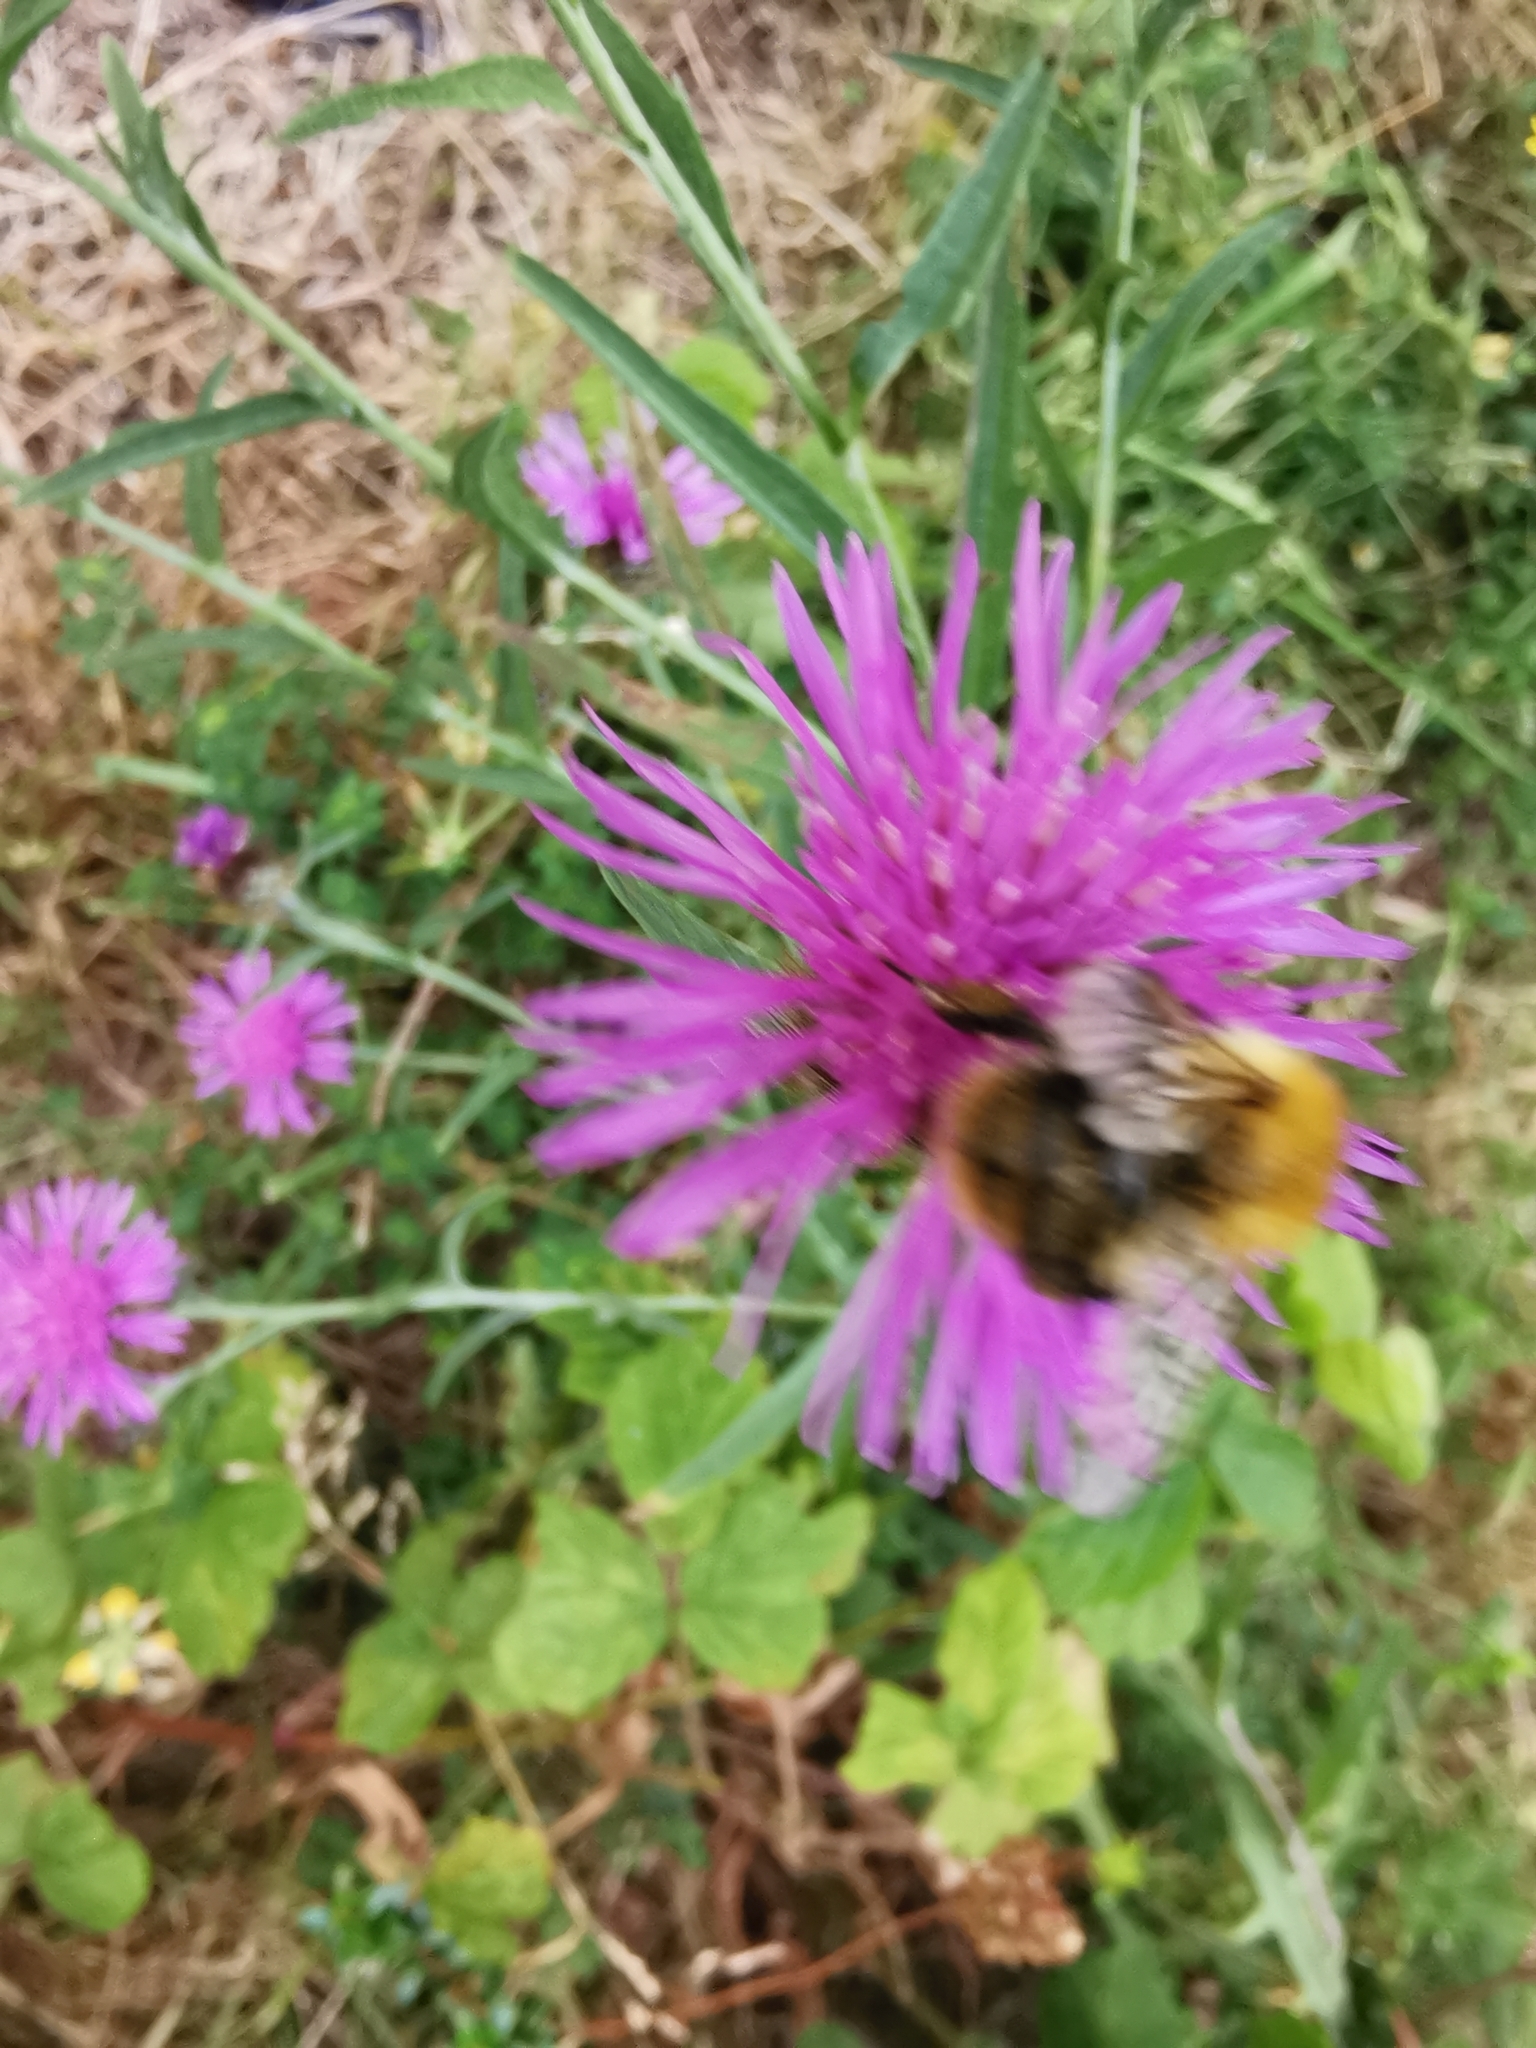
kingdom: Animalia
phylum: Arthropoda
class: Insecta
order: Hymenoptera
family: Apidae
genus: Bombus
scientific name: Bombus pascuorum
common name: Common carder bee
